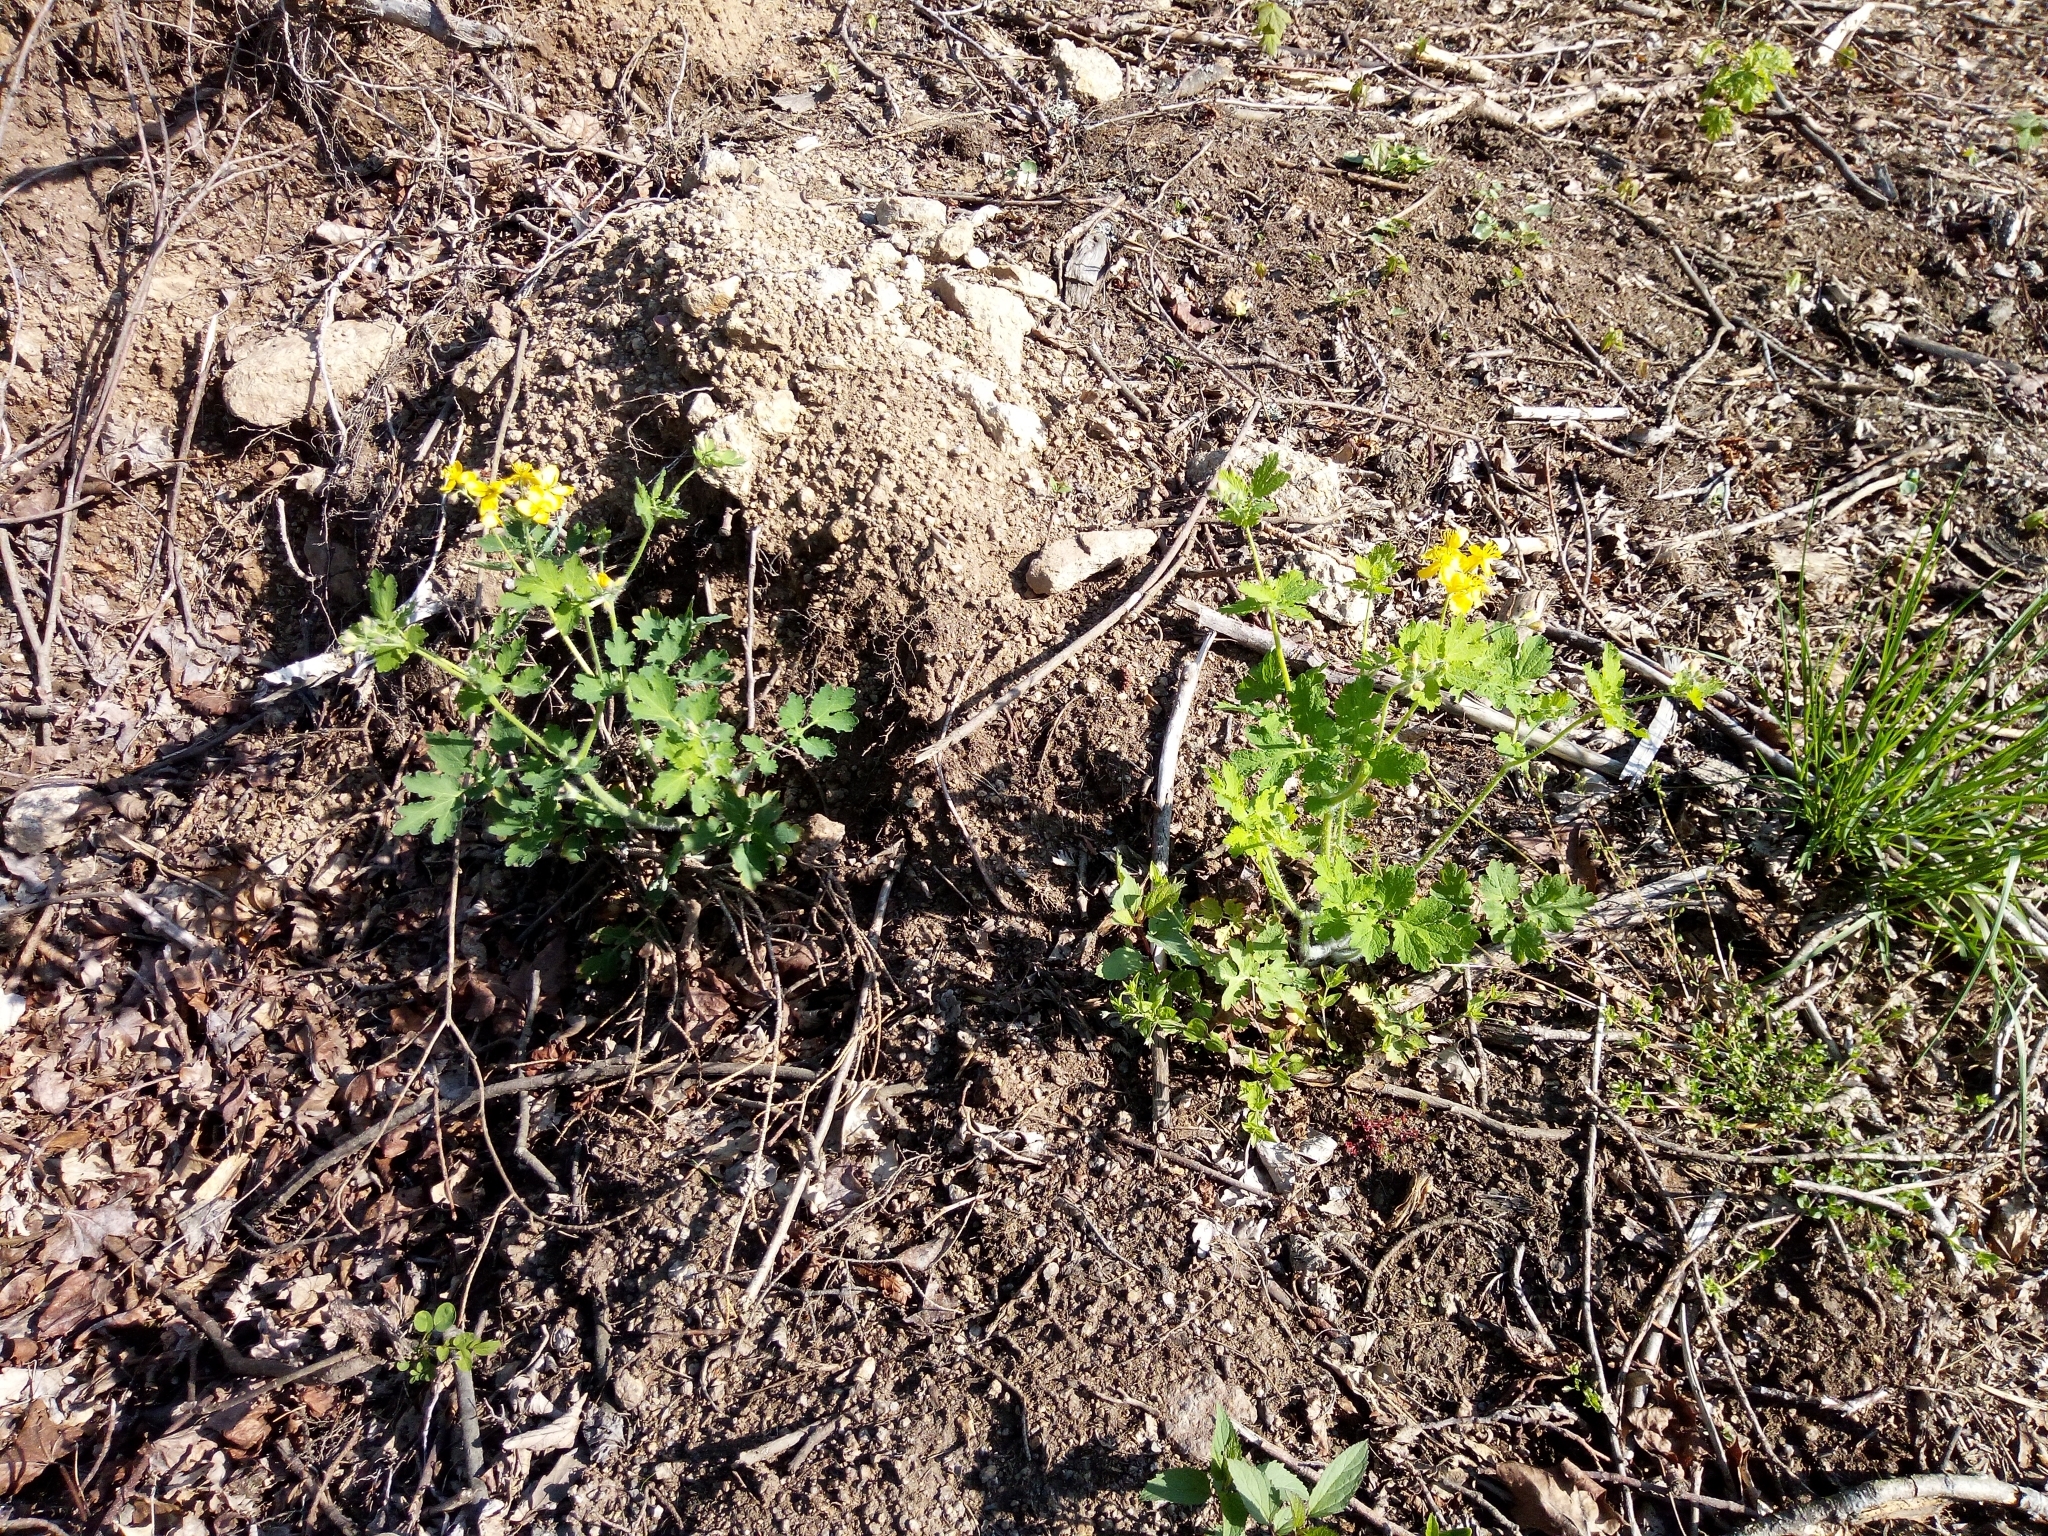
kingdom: Plantae
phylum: Tracheophyta
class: Magnoliopsida
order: Ranunculales
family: Papaveraceae
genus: Chelidonium
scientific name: Chelidonium majus
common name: Greater celandine
